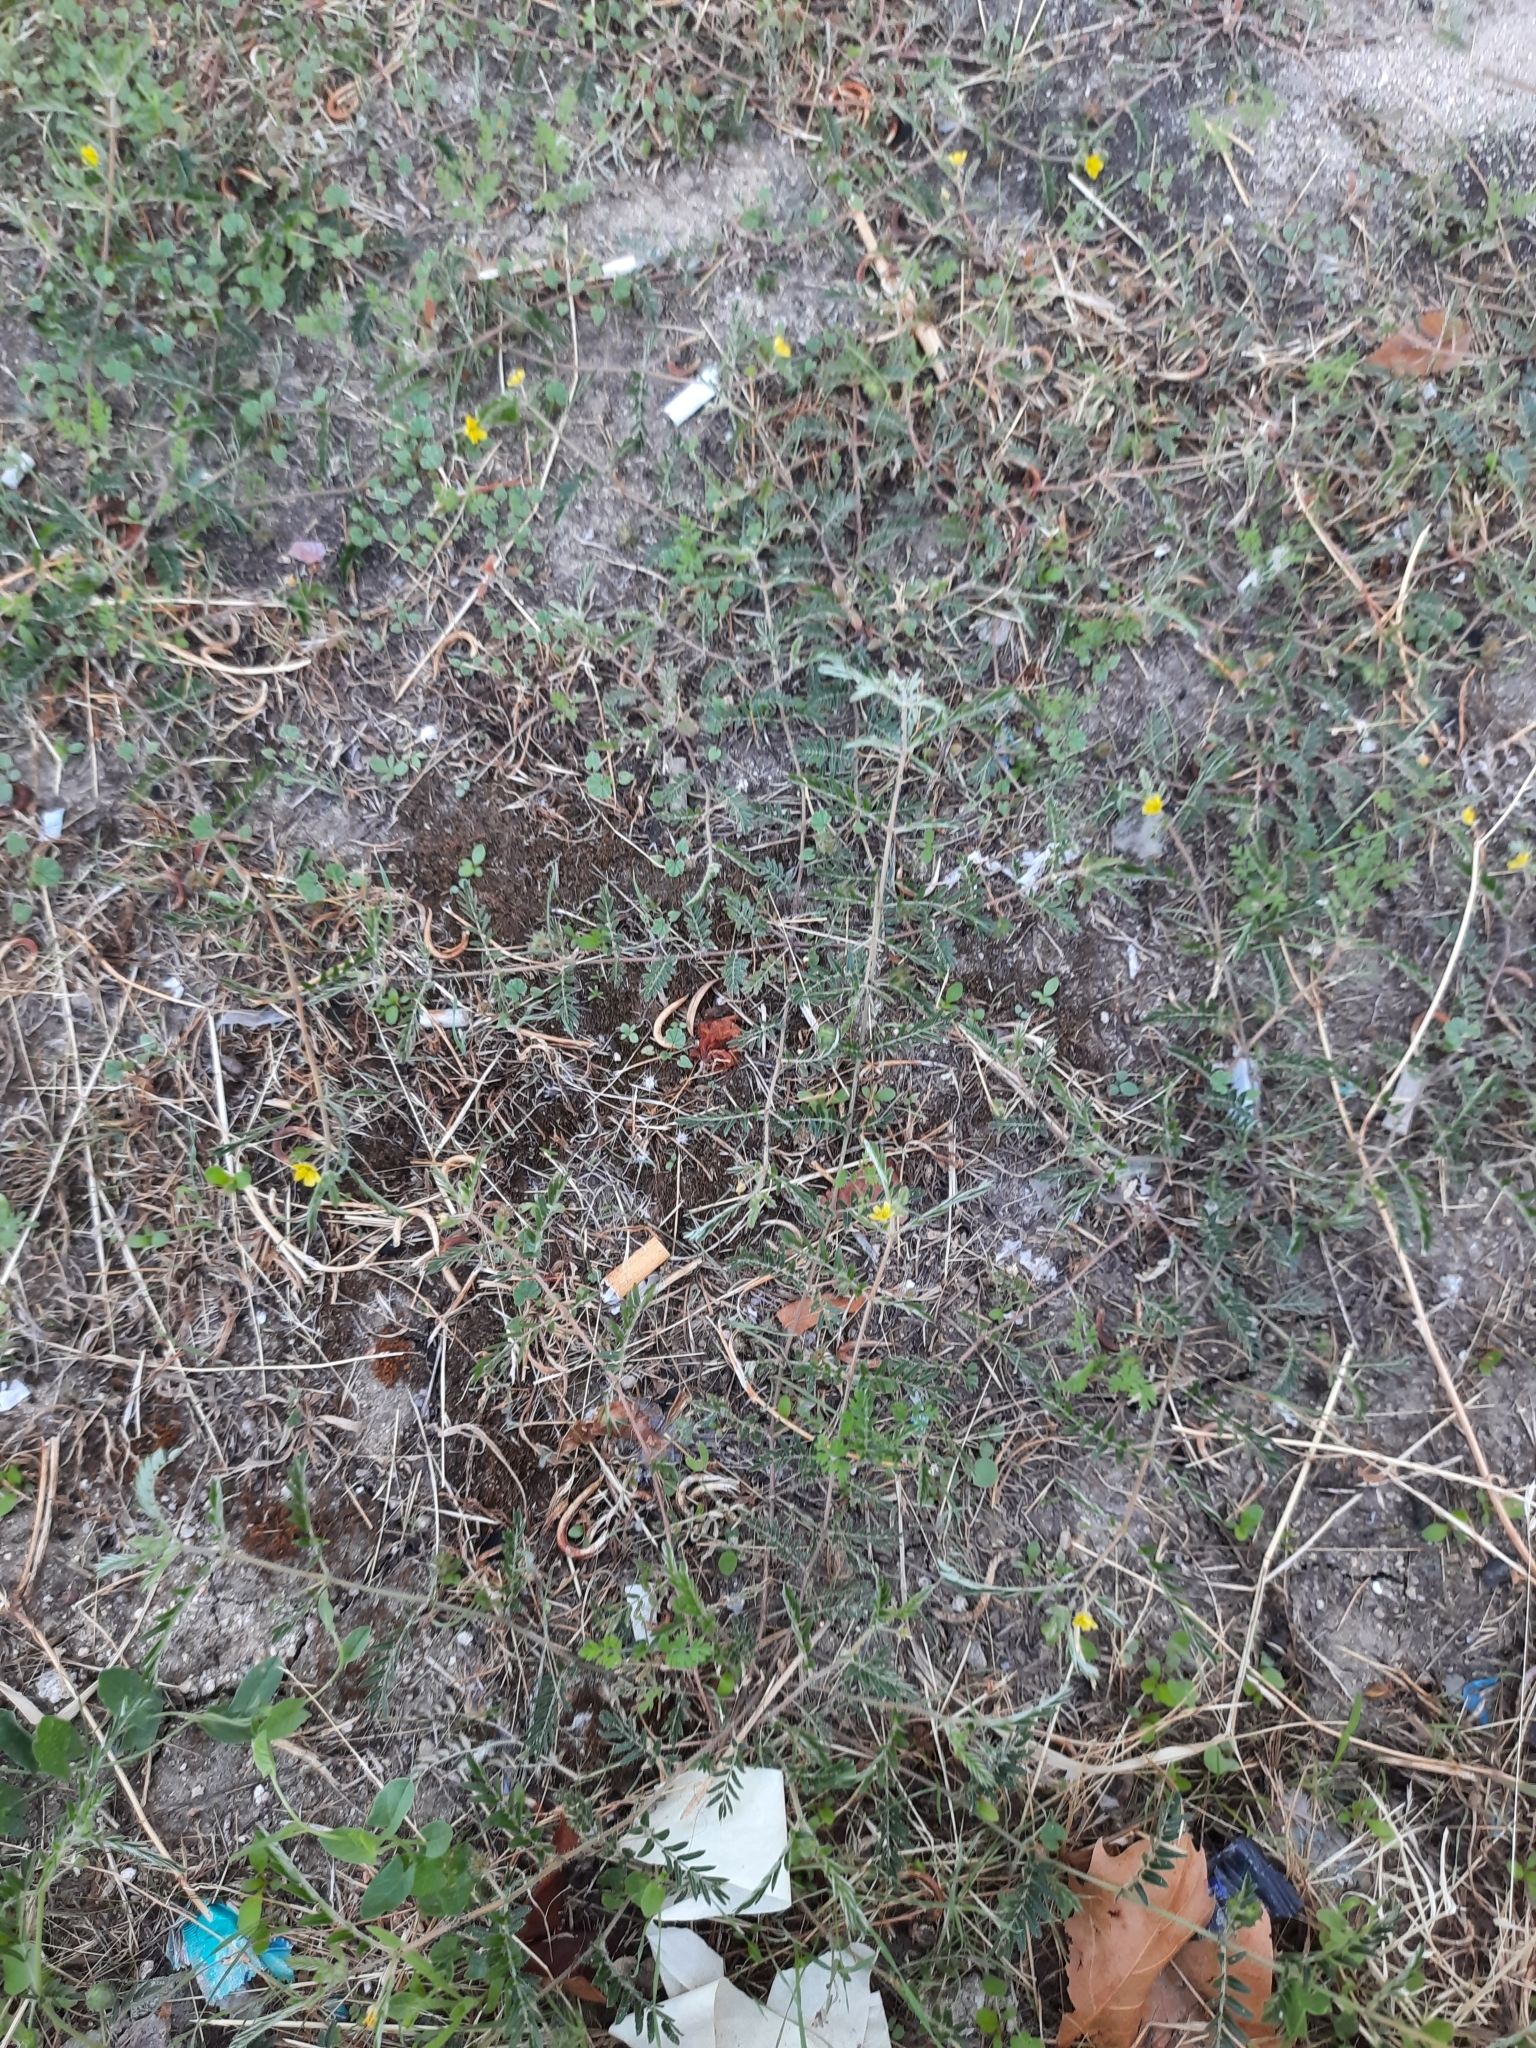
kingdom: Plantae
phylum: Tracheophyta
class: Magnoliopsida
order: Zygophyllales
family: Zygophyllaceae
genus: Tribulus
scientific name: Tribulus terrestris
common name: Puncturevine
